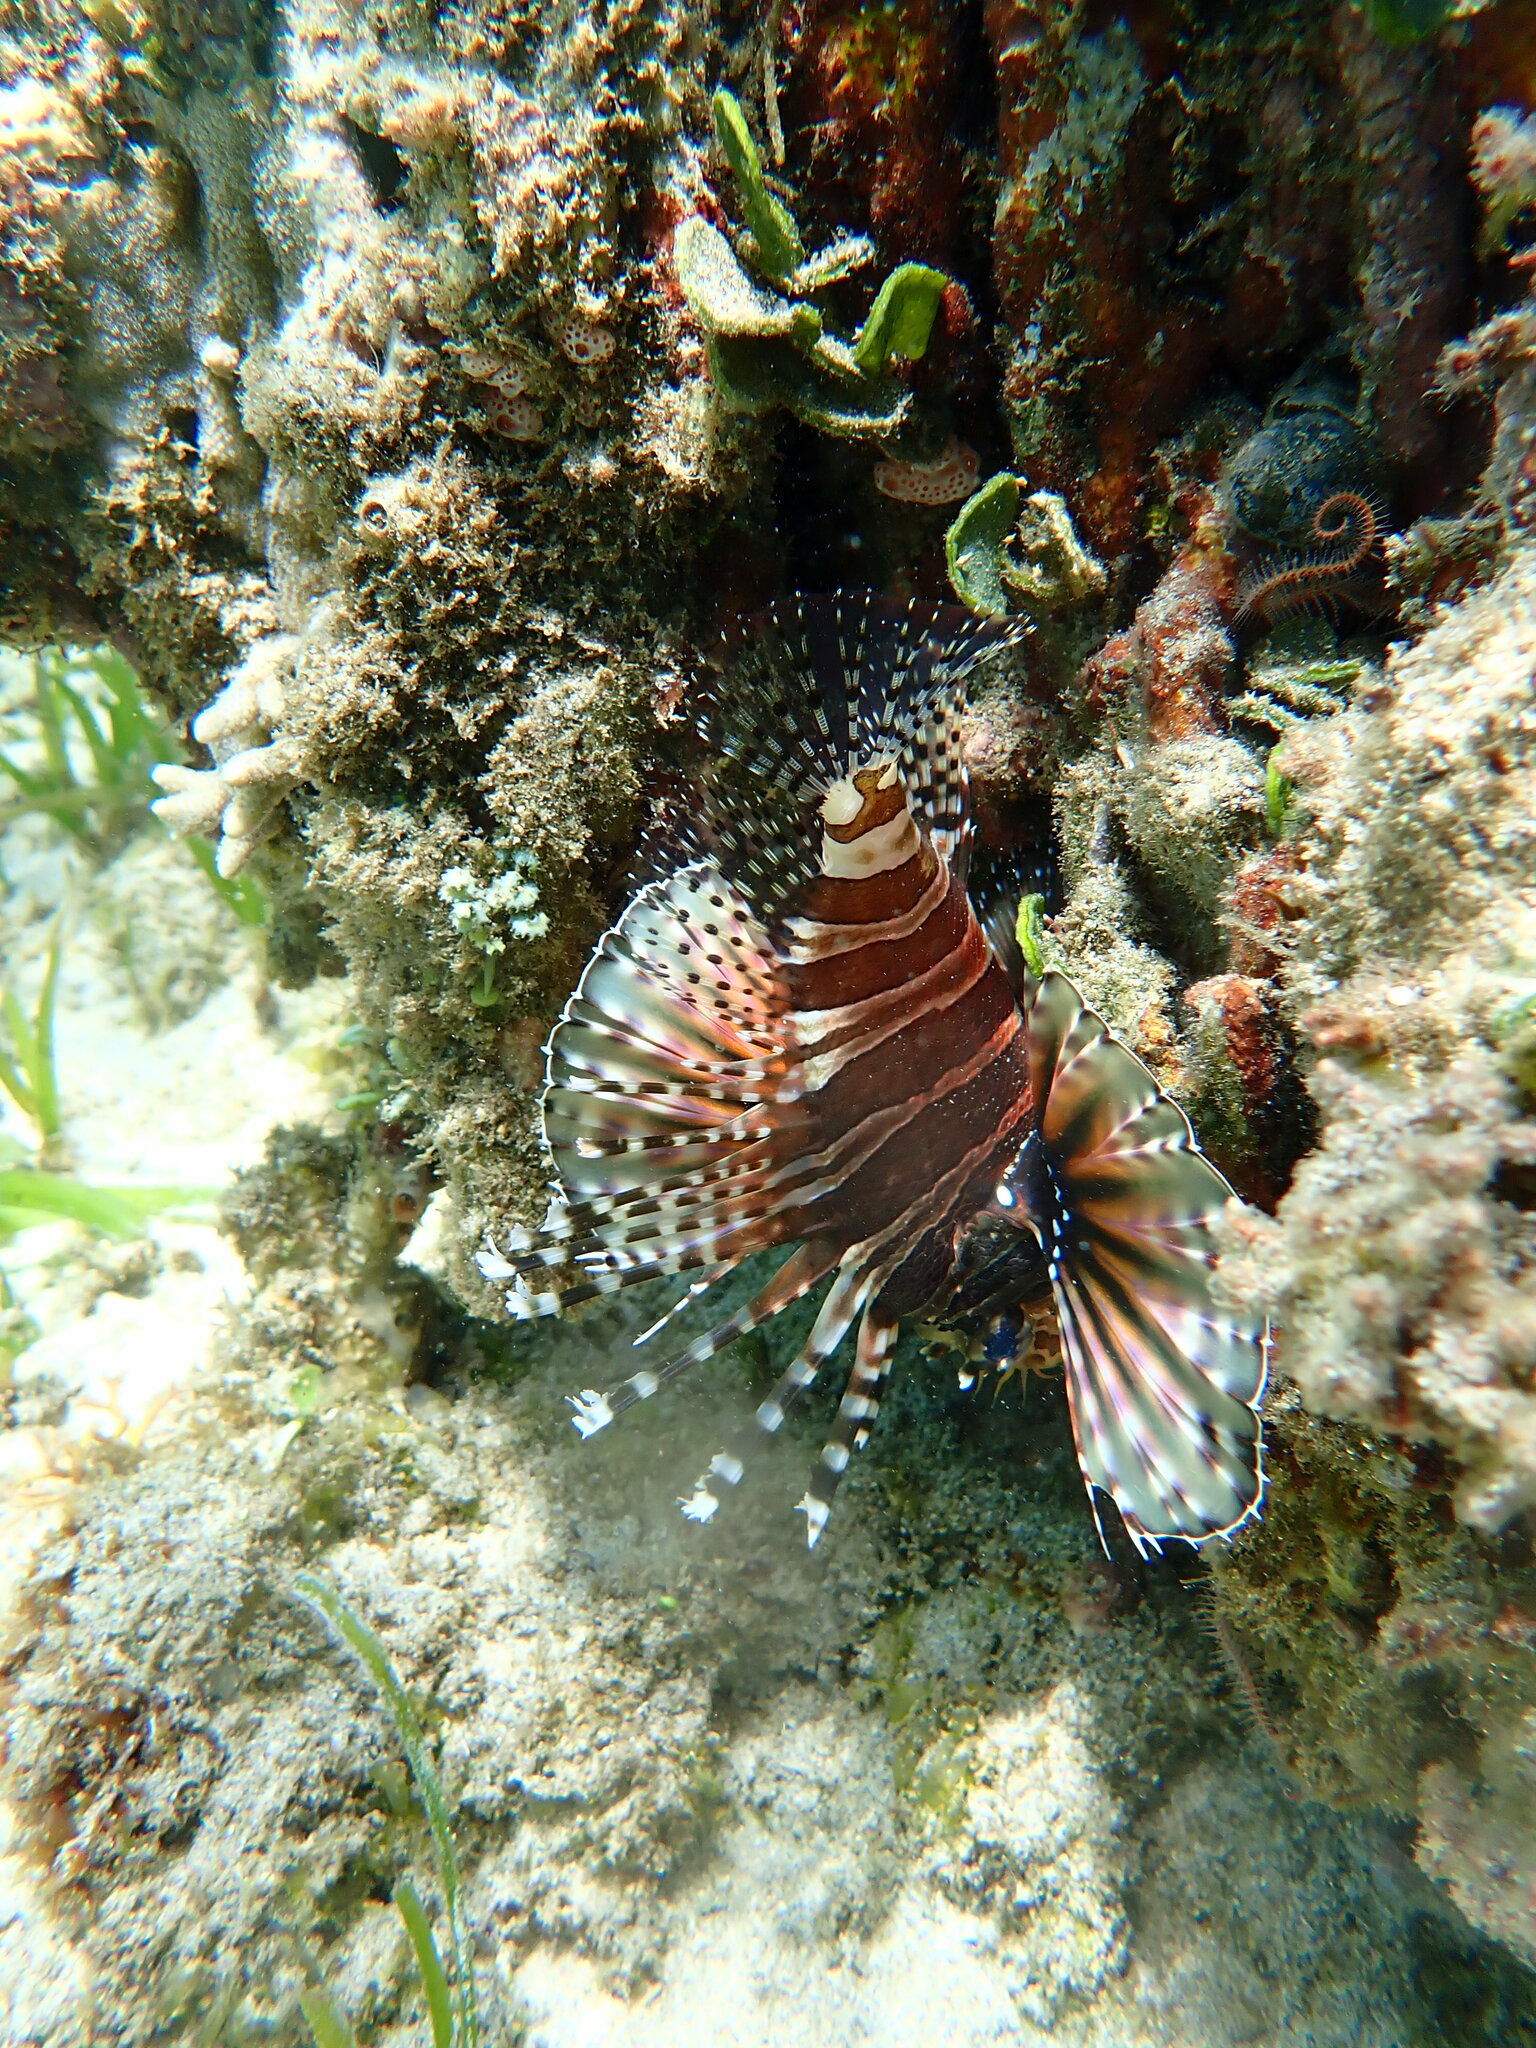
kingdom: Animalia
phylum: Chordata
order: Scorpaeniformes
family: Scorpaenidae
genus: Dendrochirus
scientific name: Dendrochirus zebra
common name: Zebra lionfish
